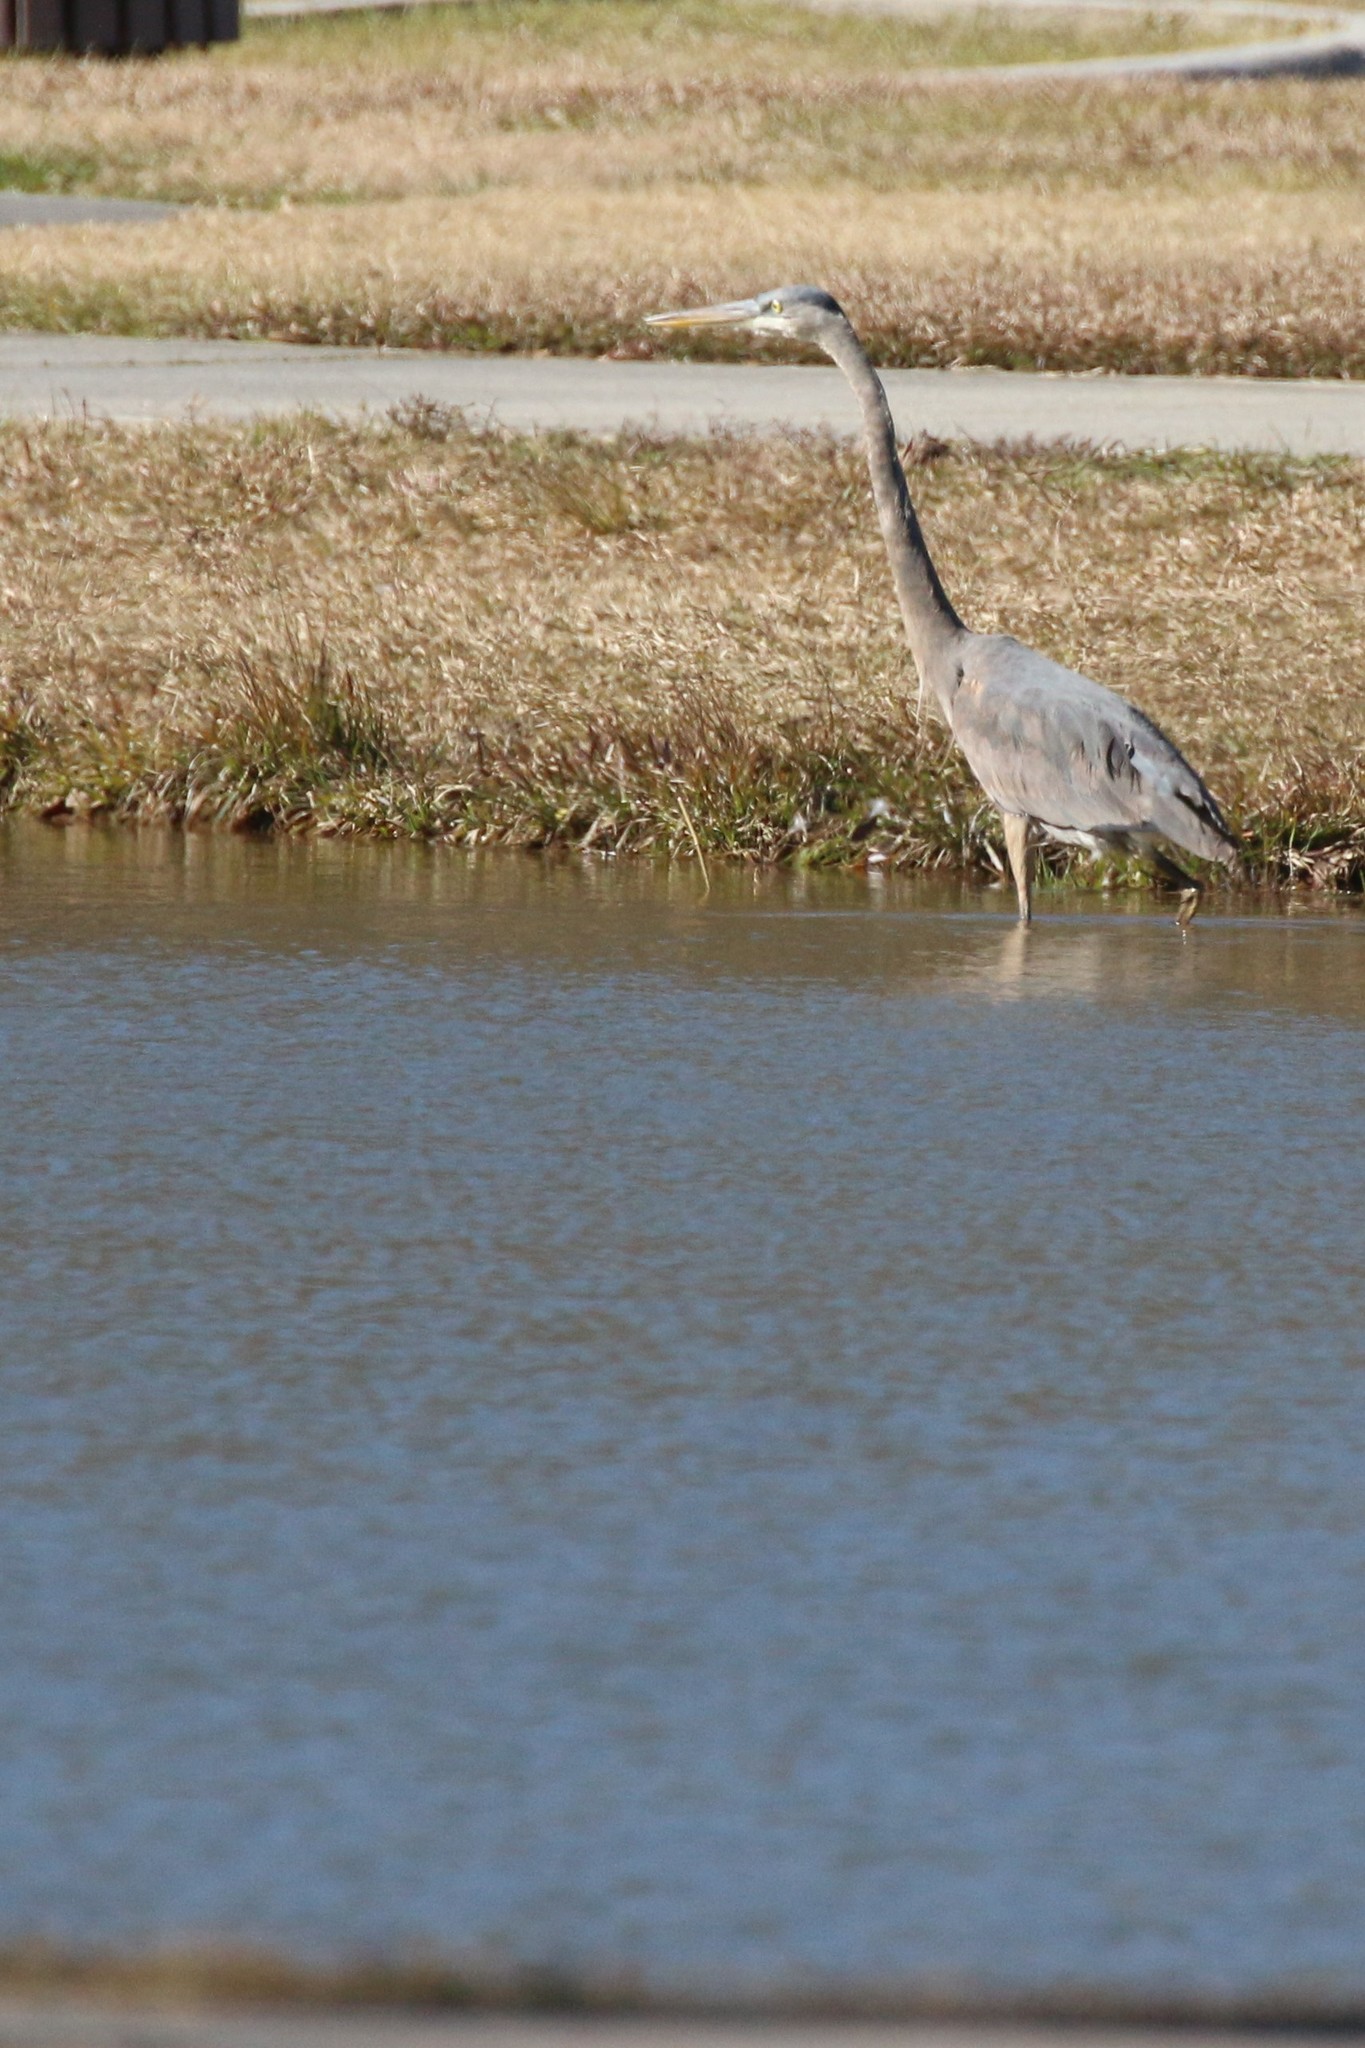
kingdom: Animalia
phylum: Chordata
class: Aves
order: Pelecaniformes
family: Ardeidae
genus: Ardea
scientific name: Ardea herodias
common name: Great blue heron
